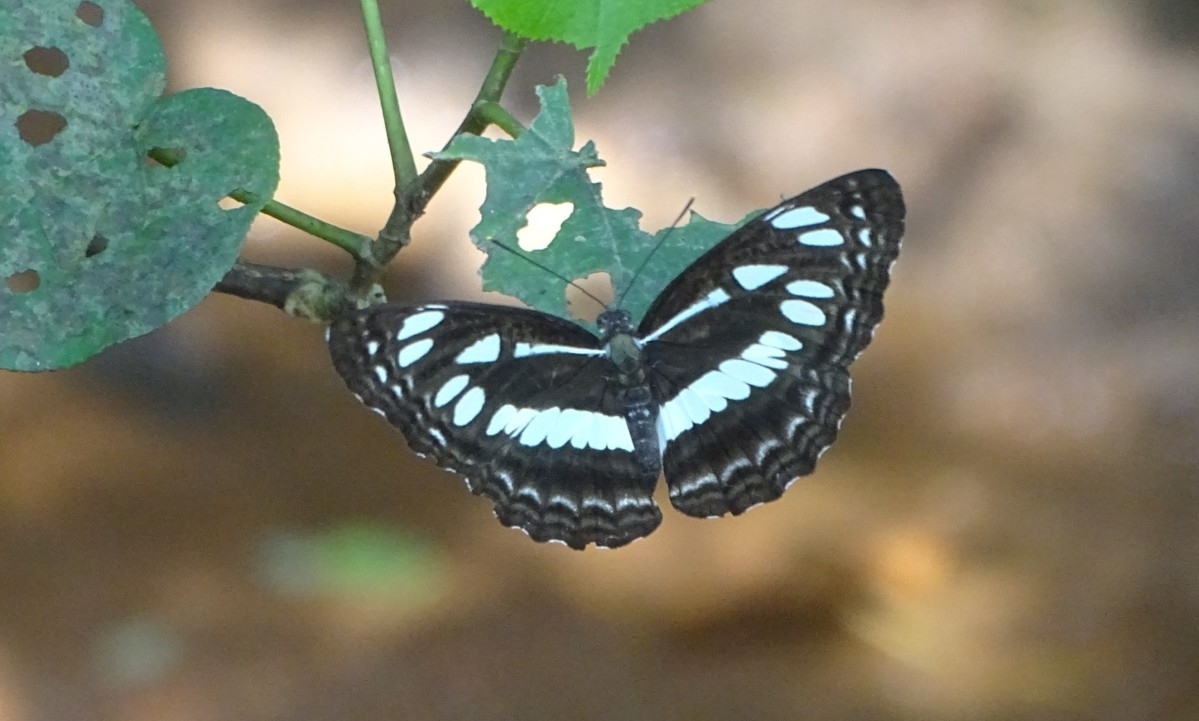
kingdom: Animalia
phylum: Arthropoda
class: Insecta
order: Lepidoptera
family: Nymphalidae
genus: Neptis
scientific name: Neptis jumbah
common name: Chestnut-streaked sailer
